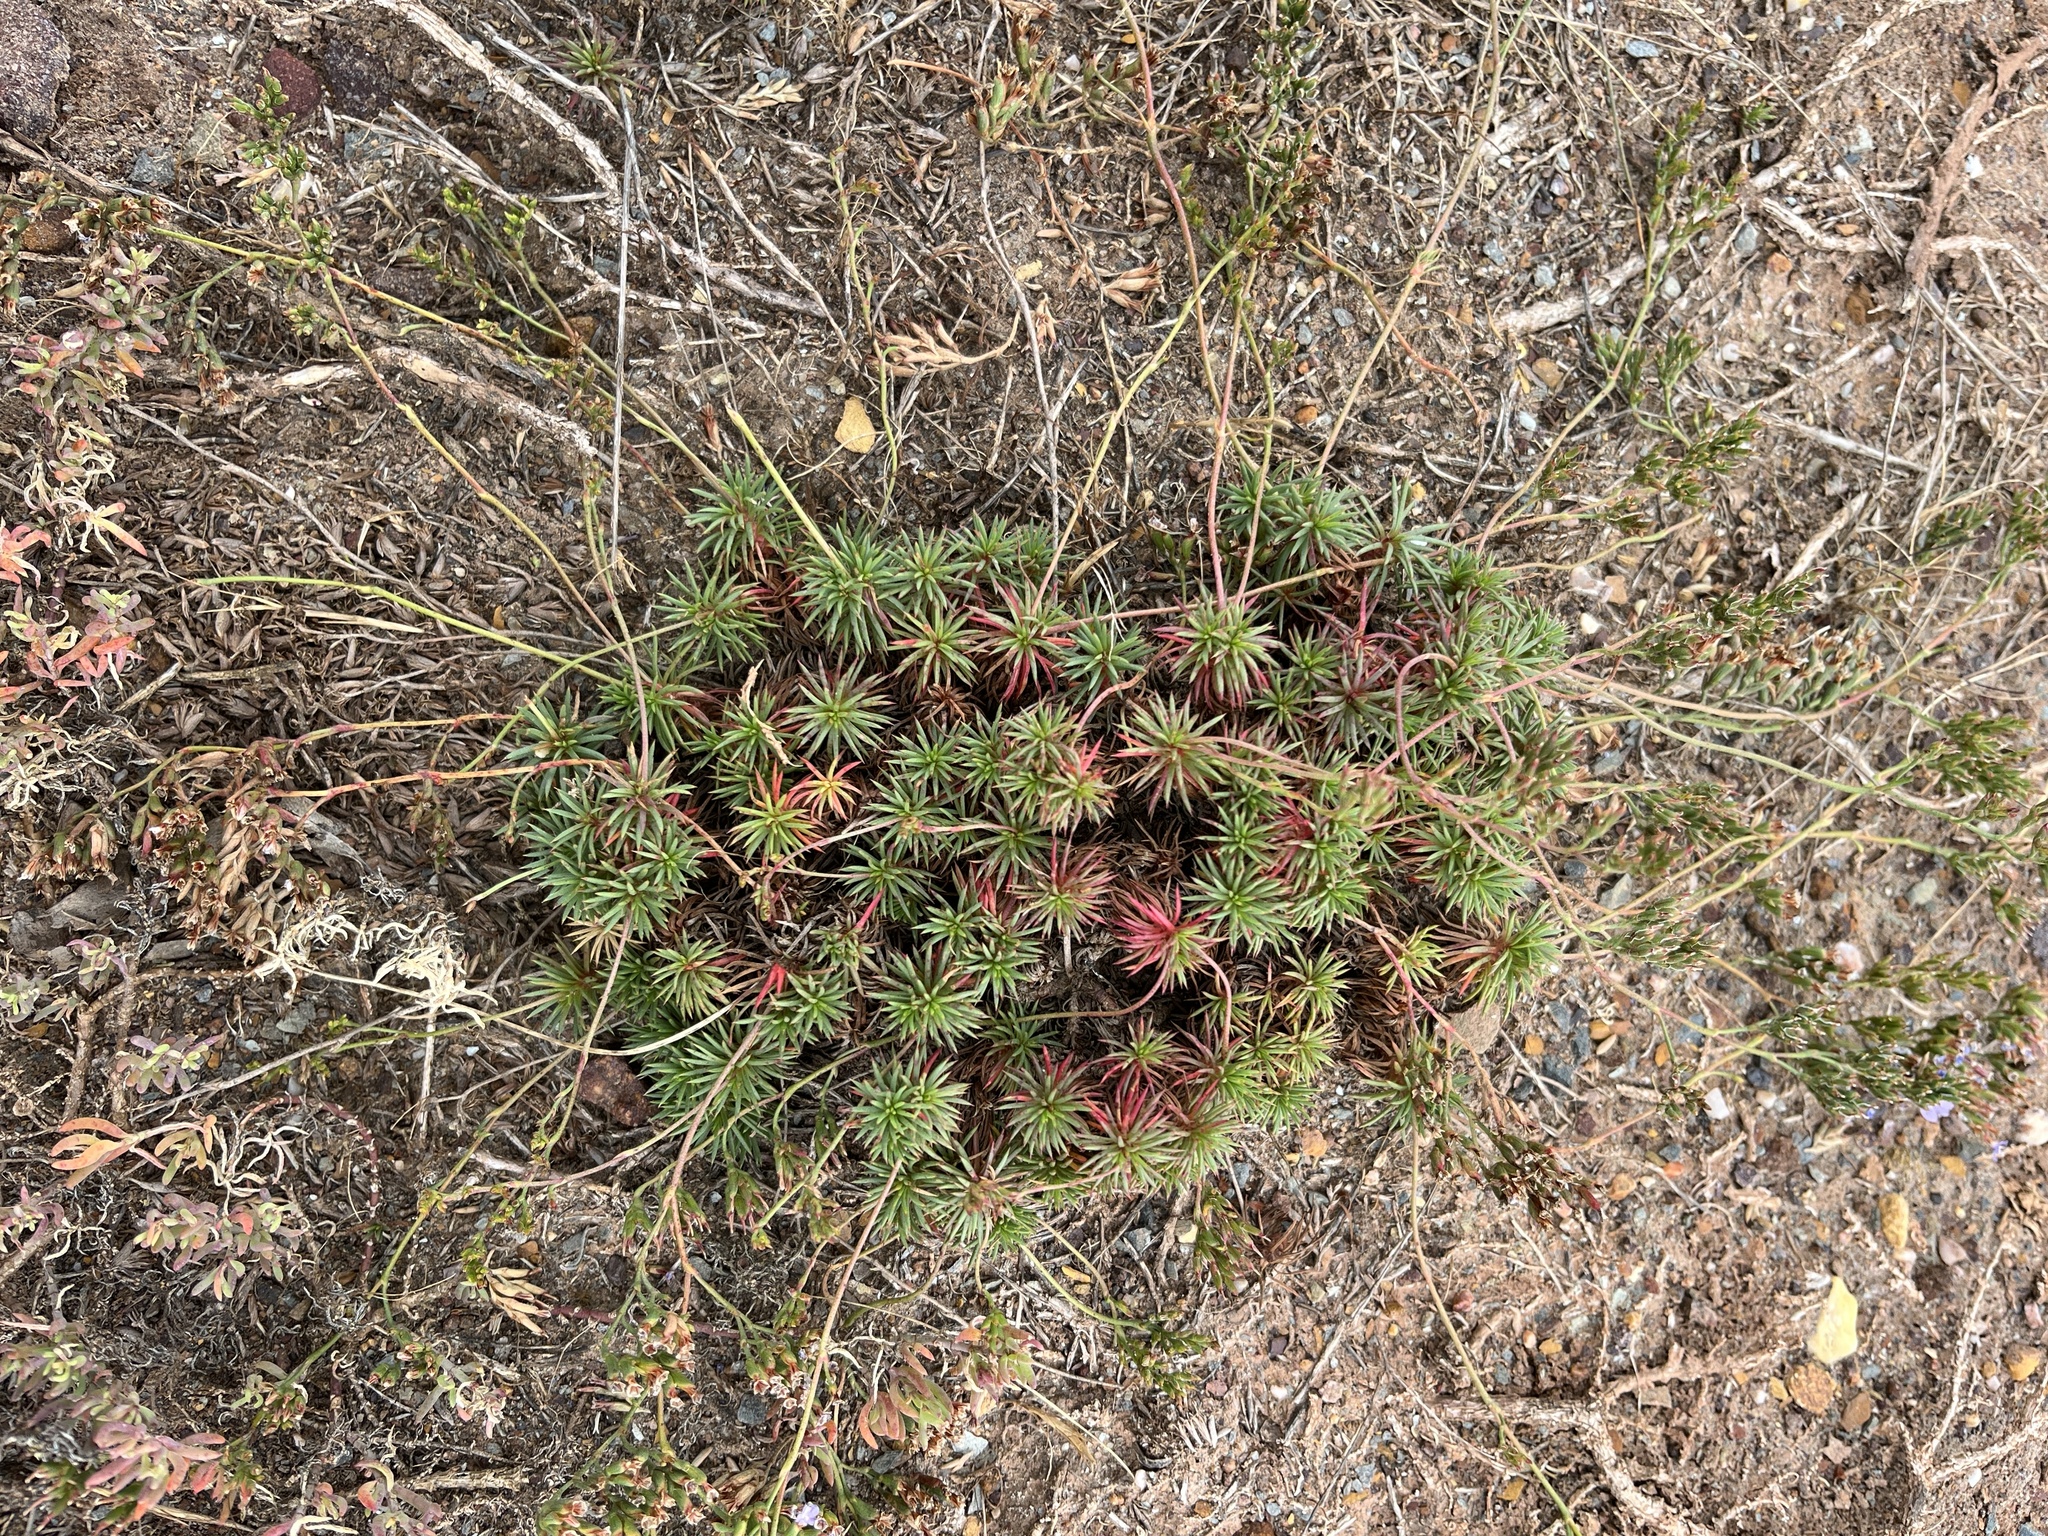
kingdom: Plantae
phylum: Tracheophyta
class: Magnoliopsida
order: Caryophyllales
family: Plumbaginaceae
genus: Limonium
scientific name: Limonium kraussianum
